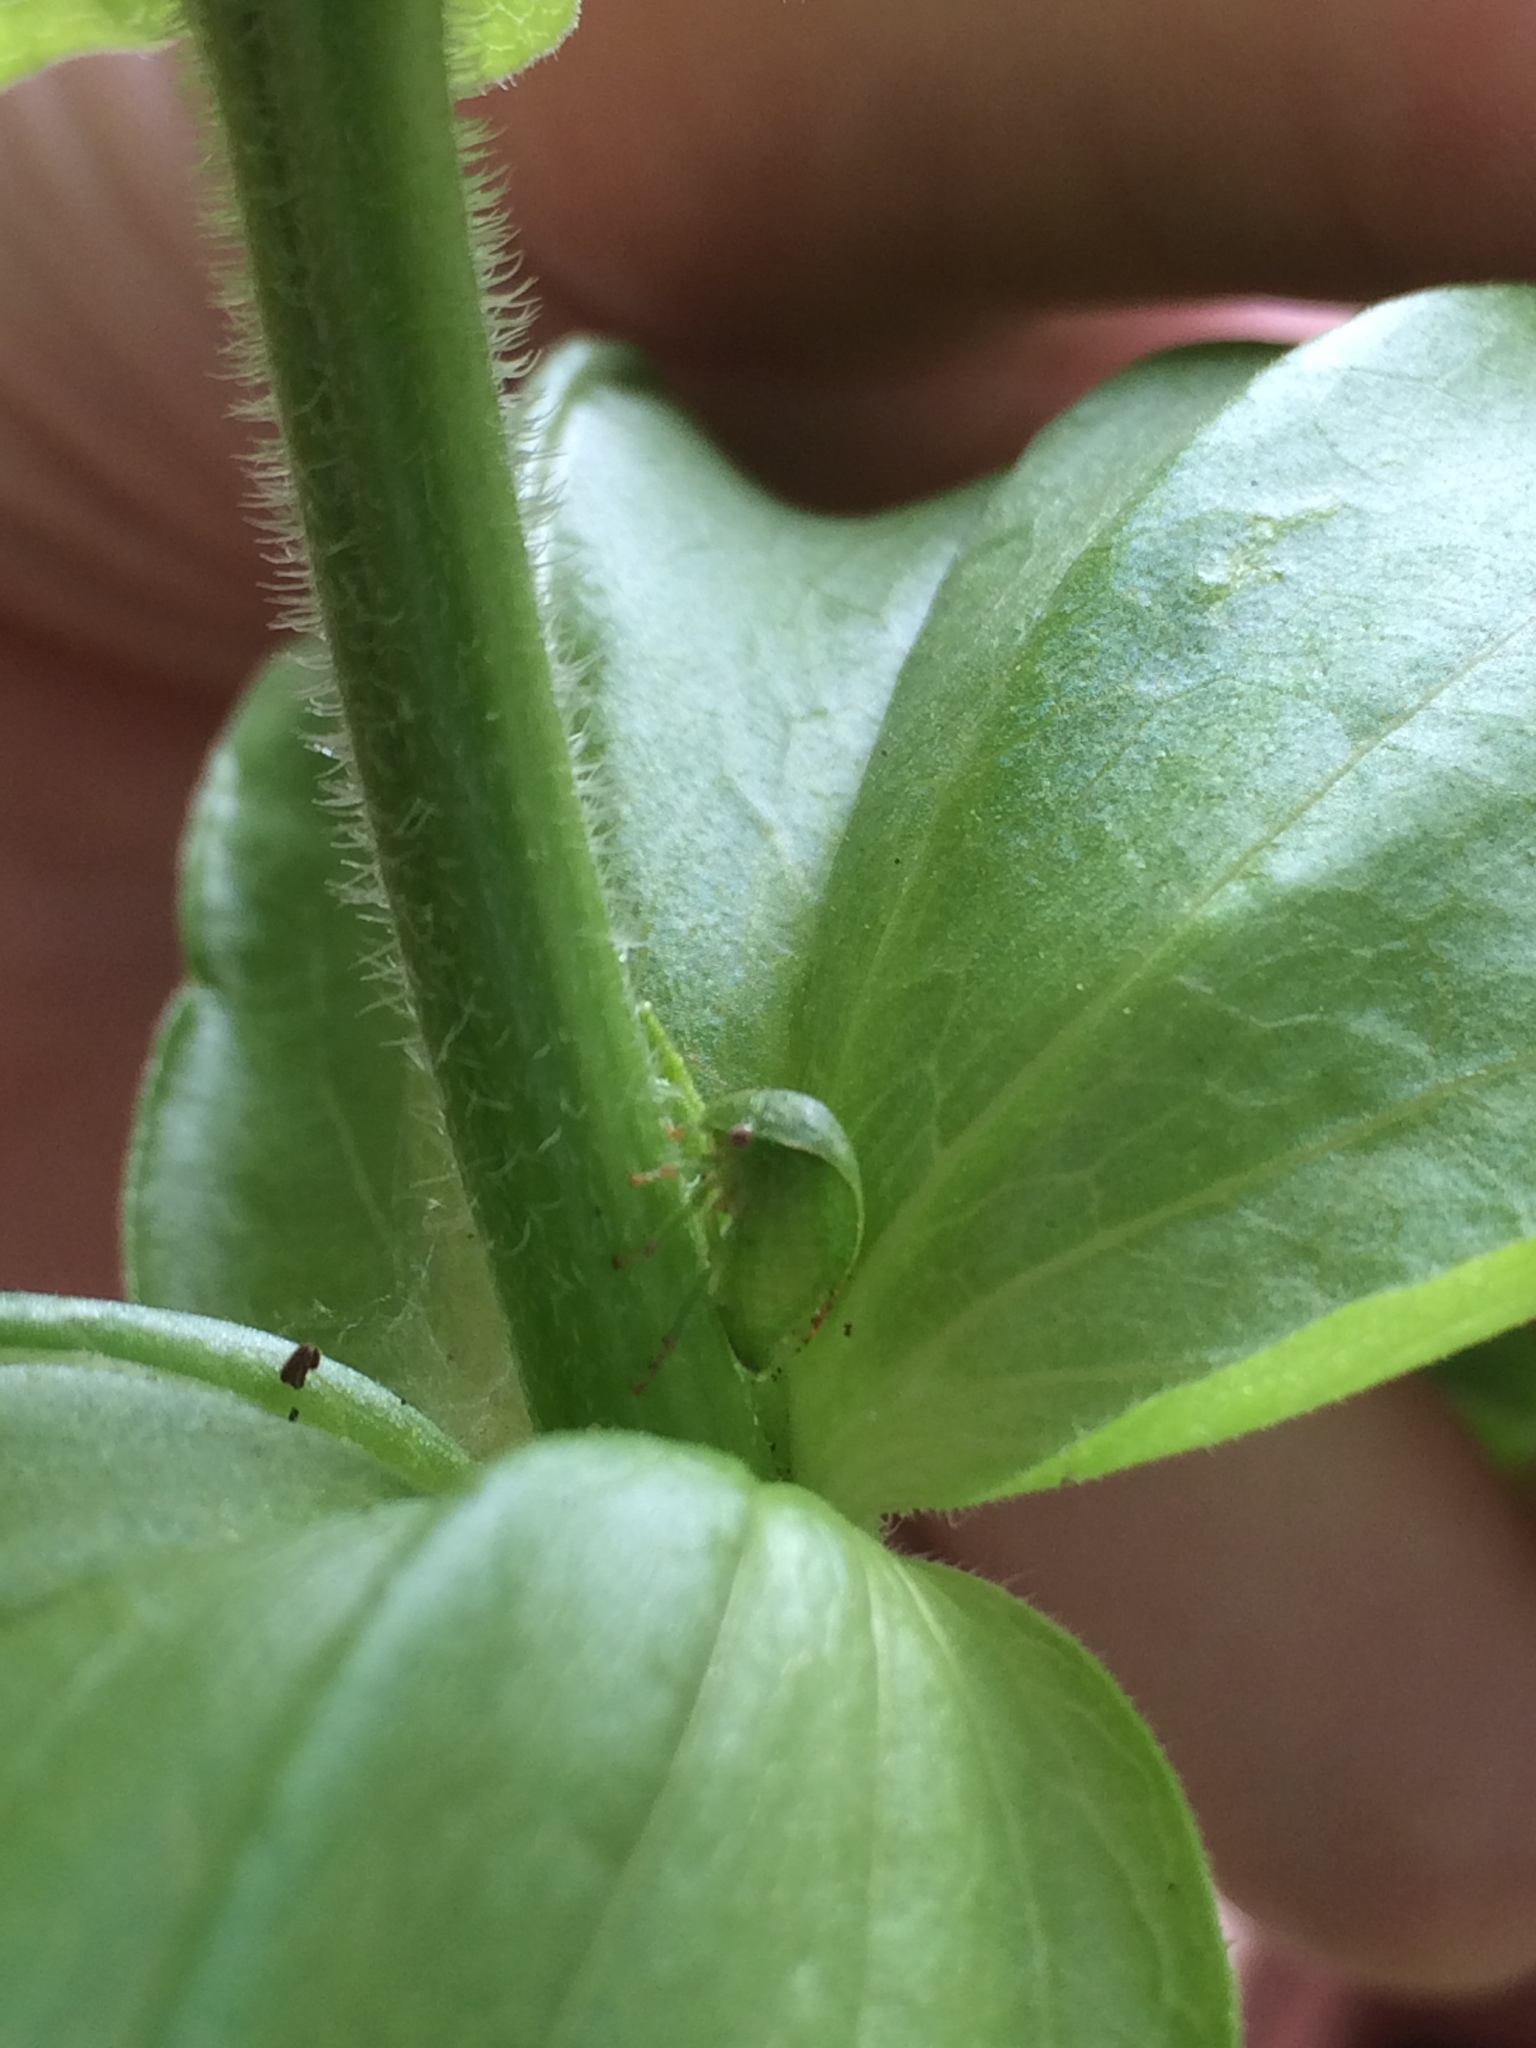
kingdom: Animalia
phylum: Arthropoda
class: Insecta
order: Hemiptera
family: Membracidae
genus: Spissistilus
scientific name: Spissistilus festina
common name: Membracid bug
